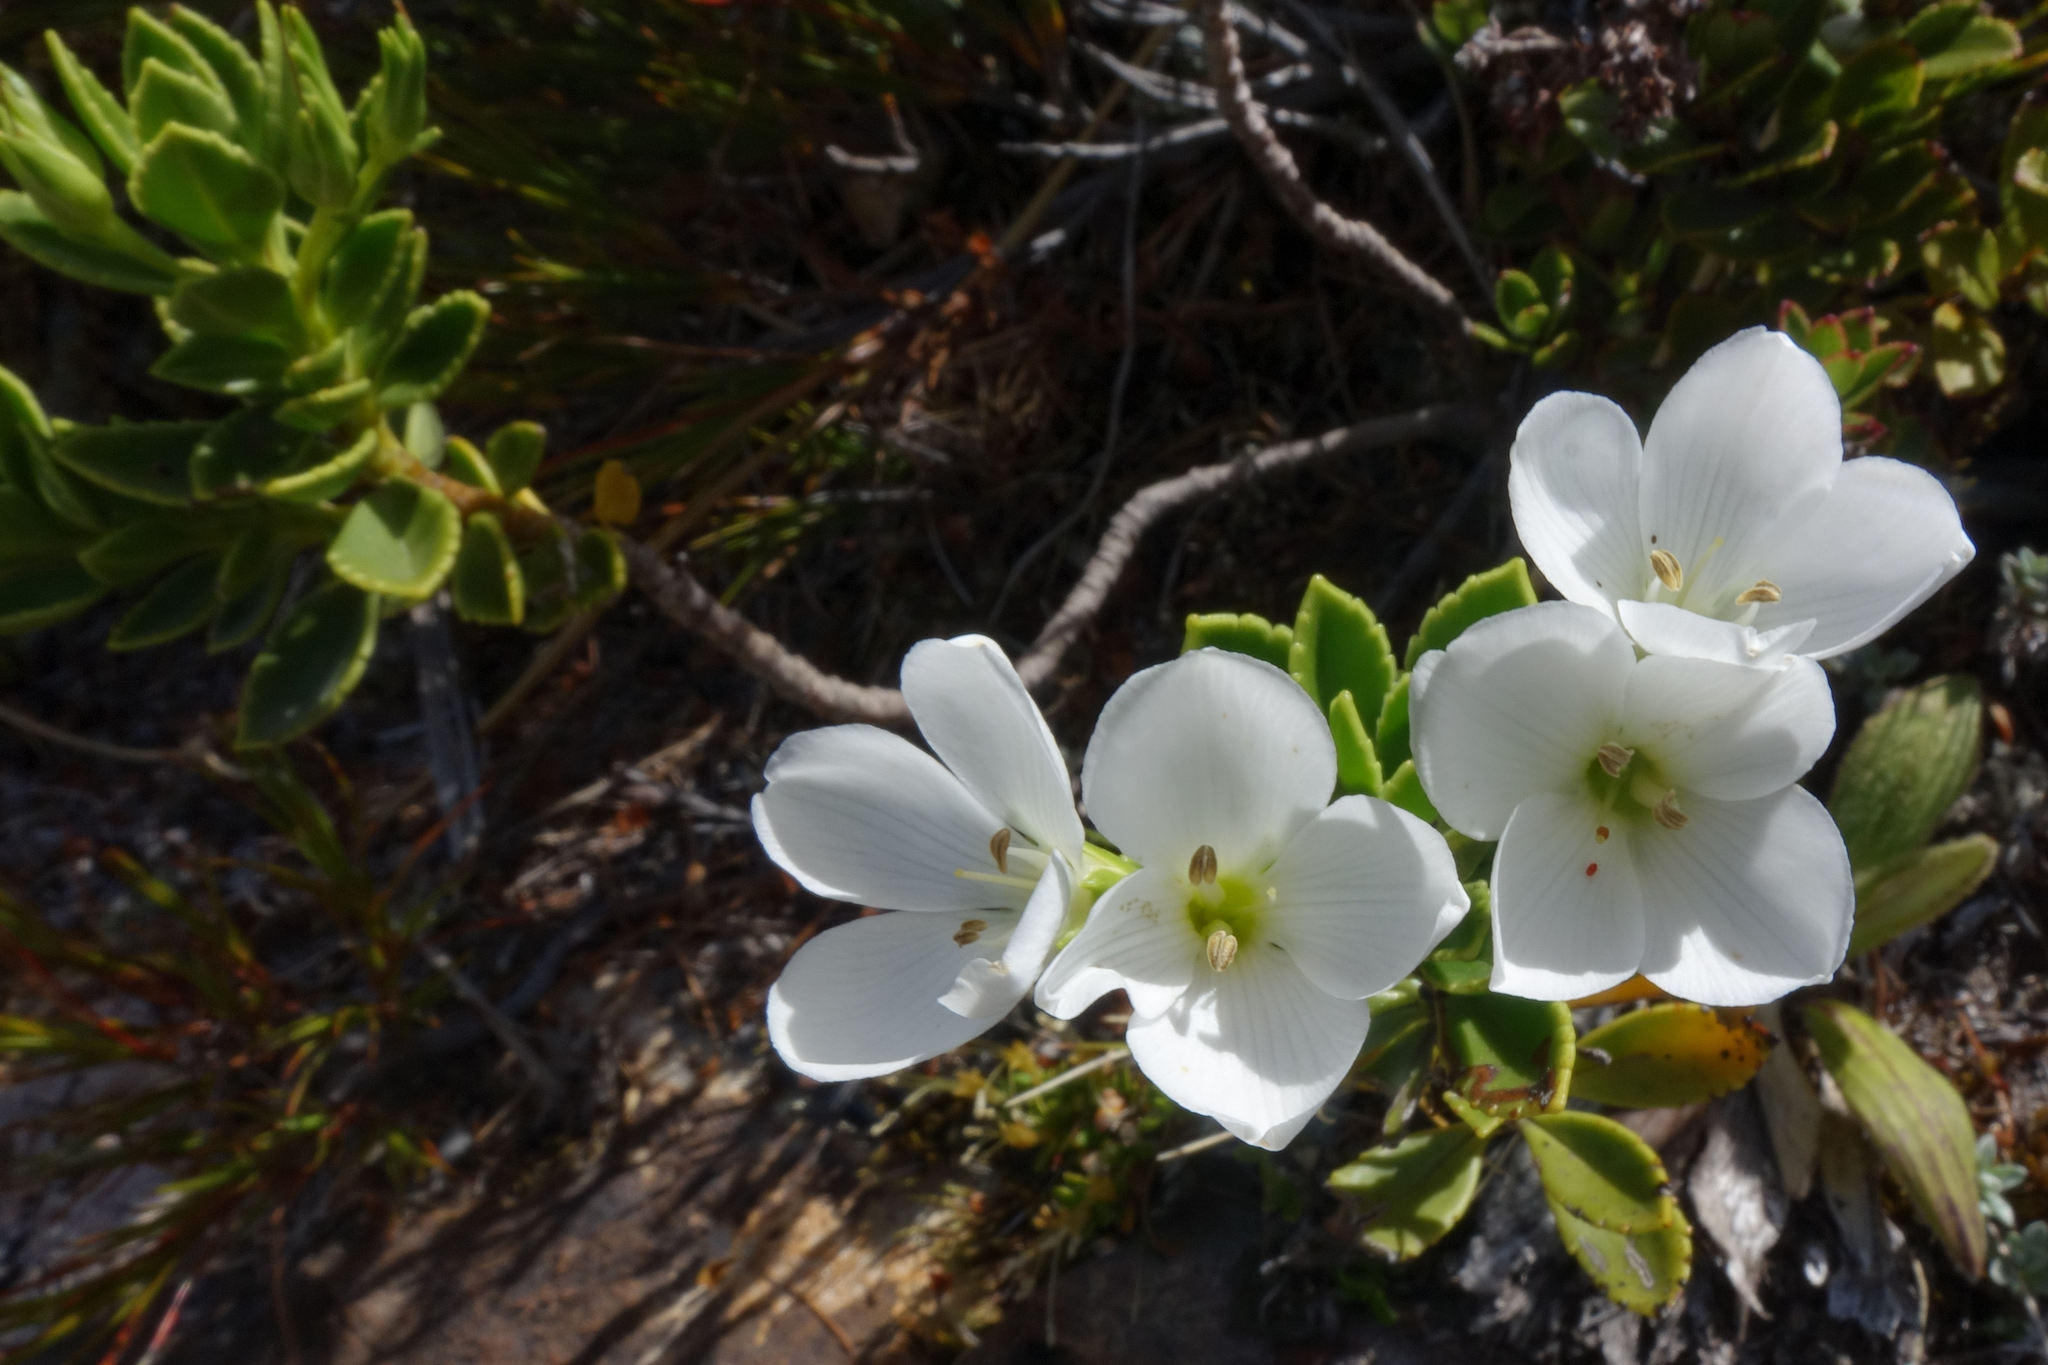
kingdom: Plantae
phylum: Tracheophyta
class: Magnoliopsida
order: Lamiales
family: Plantaginaceae
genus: Veronica
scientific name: Veronica macrantha
